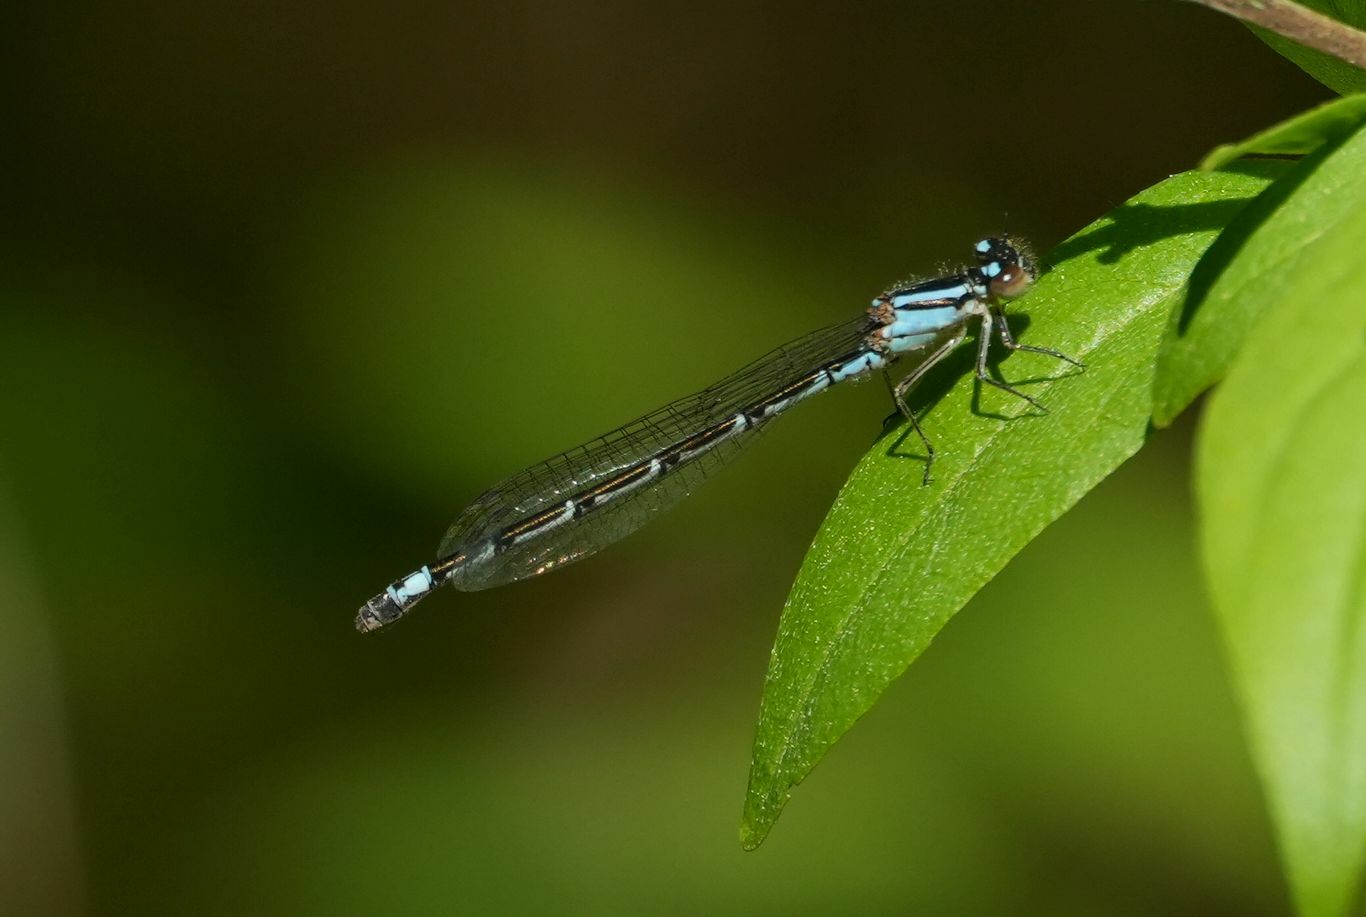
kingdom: Animalia
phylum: Arthropoda
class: Insecta
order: Odonata
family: Coenagrionidae
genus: Enallagma
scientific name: Enallagma geminatum
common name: Skimming bluet
